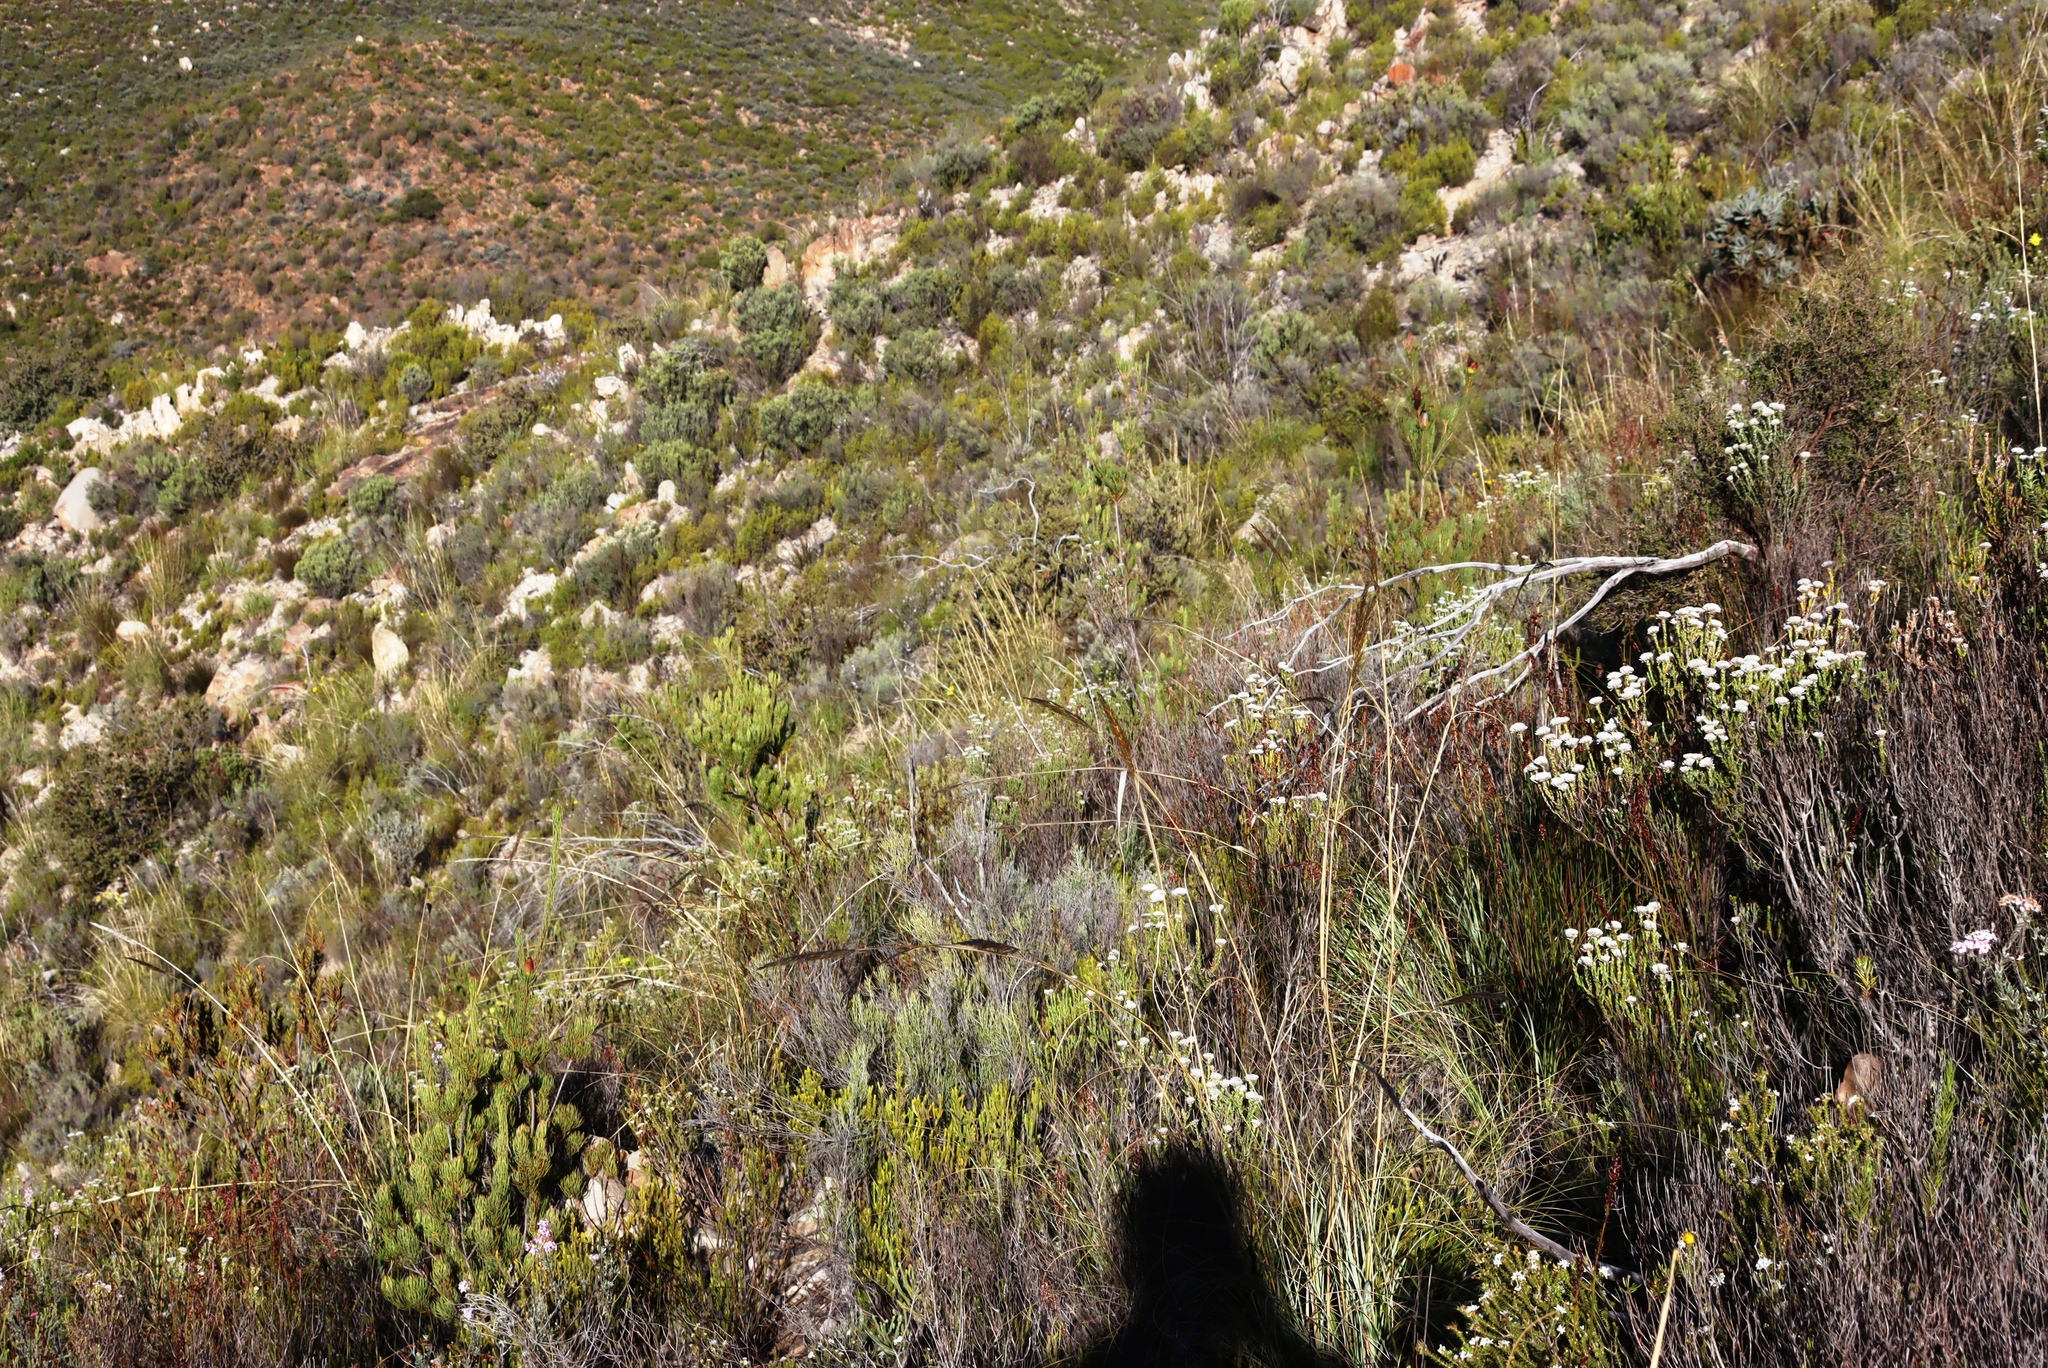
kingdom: Plantae
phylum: Tracheophyta
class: Magnoliopsida
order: Proteales
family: Proteaceae
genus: Leucadendron
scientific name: Leucadendron nobile
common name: Karoo conebush
